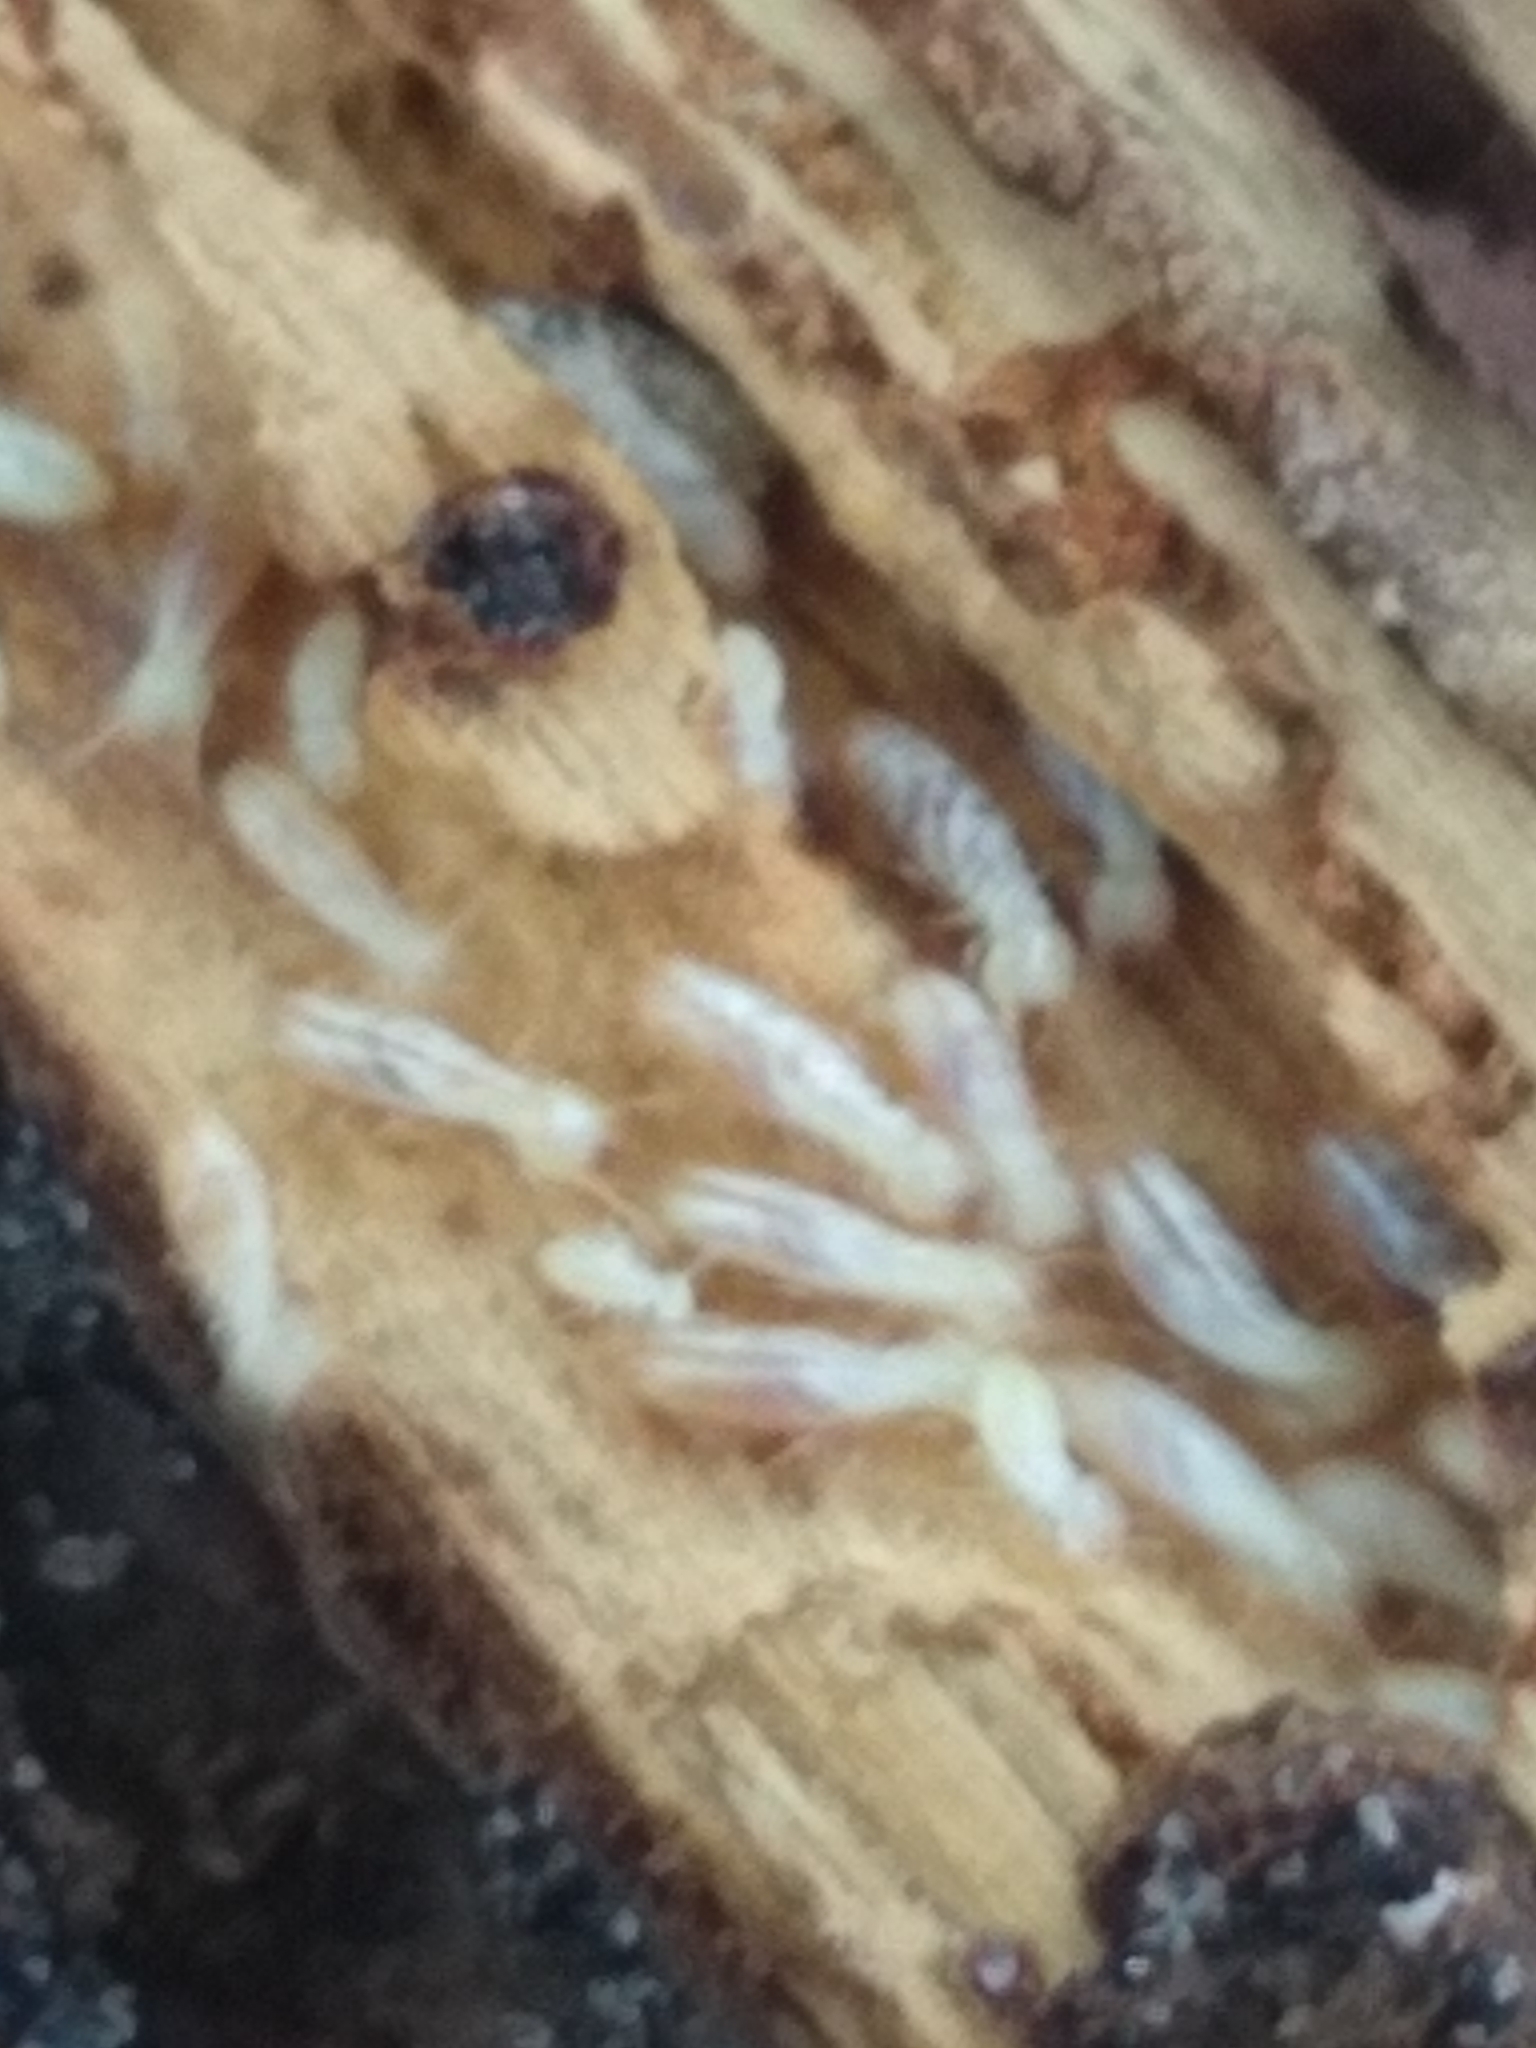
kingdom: Animalia
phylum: Arthropoda
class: Insecta
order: Blattodea
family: Rhinotermitidae
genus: Reticulitermes
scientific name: Reticulitermes flavipes
